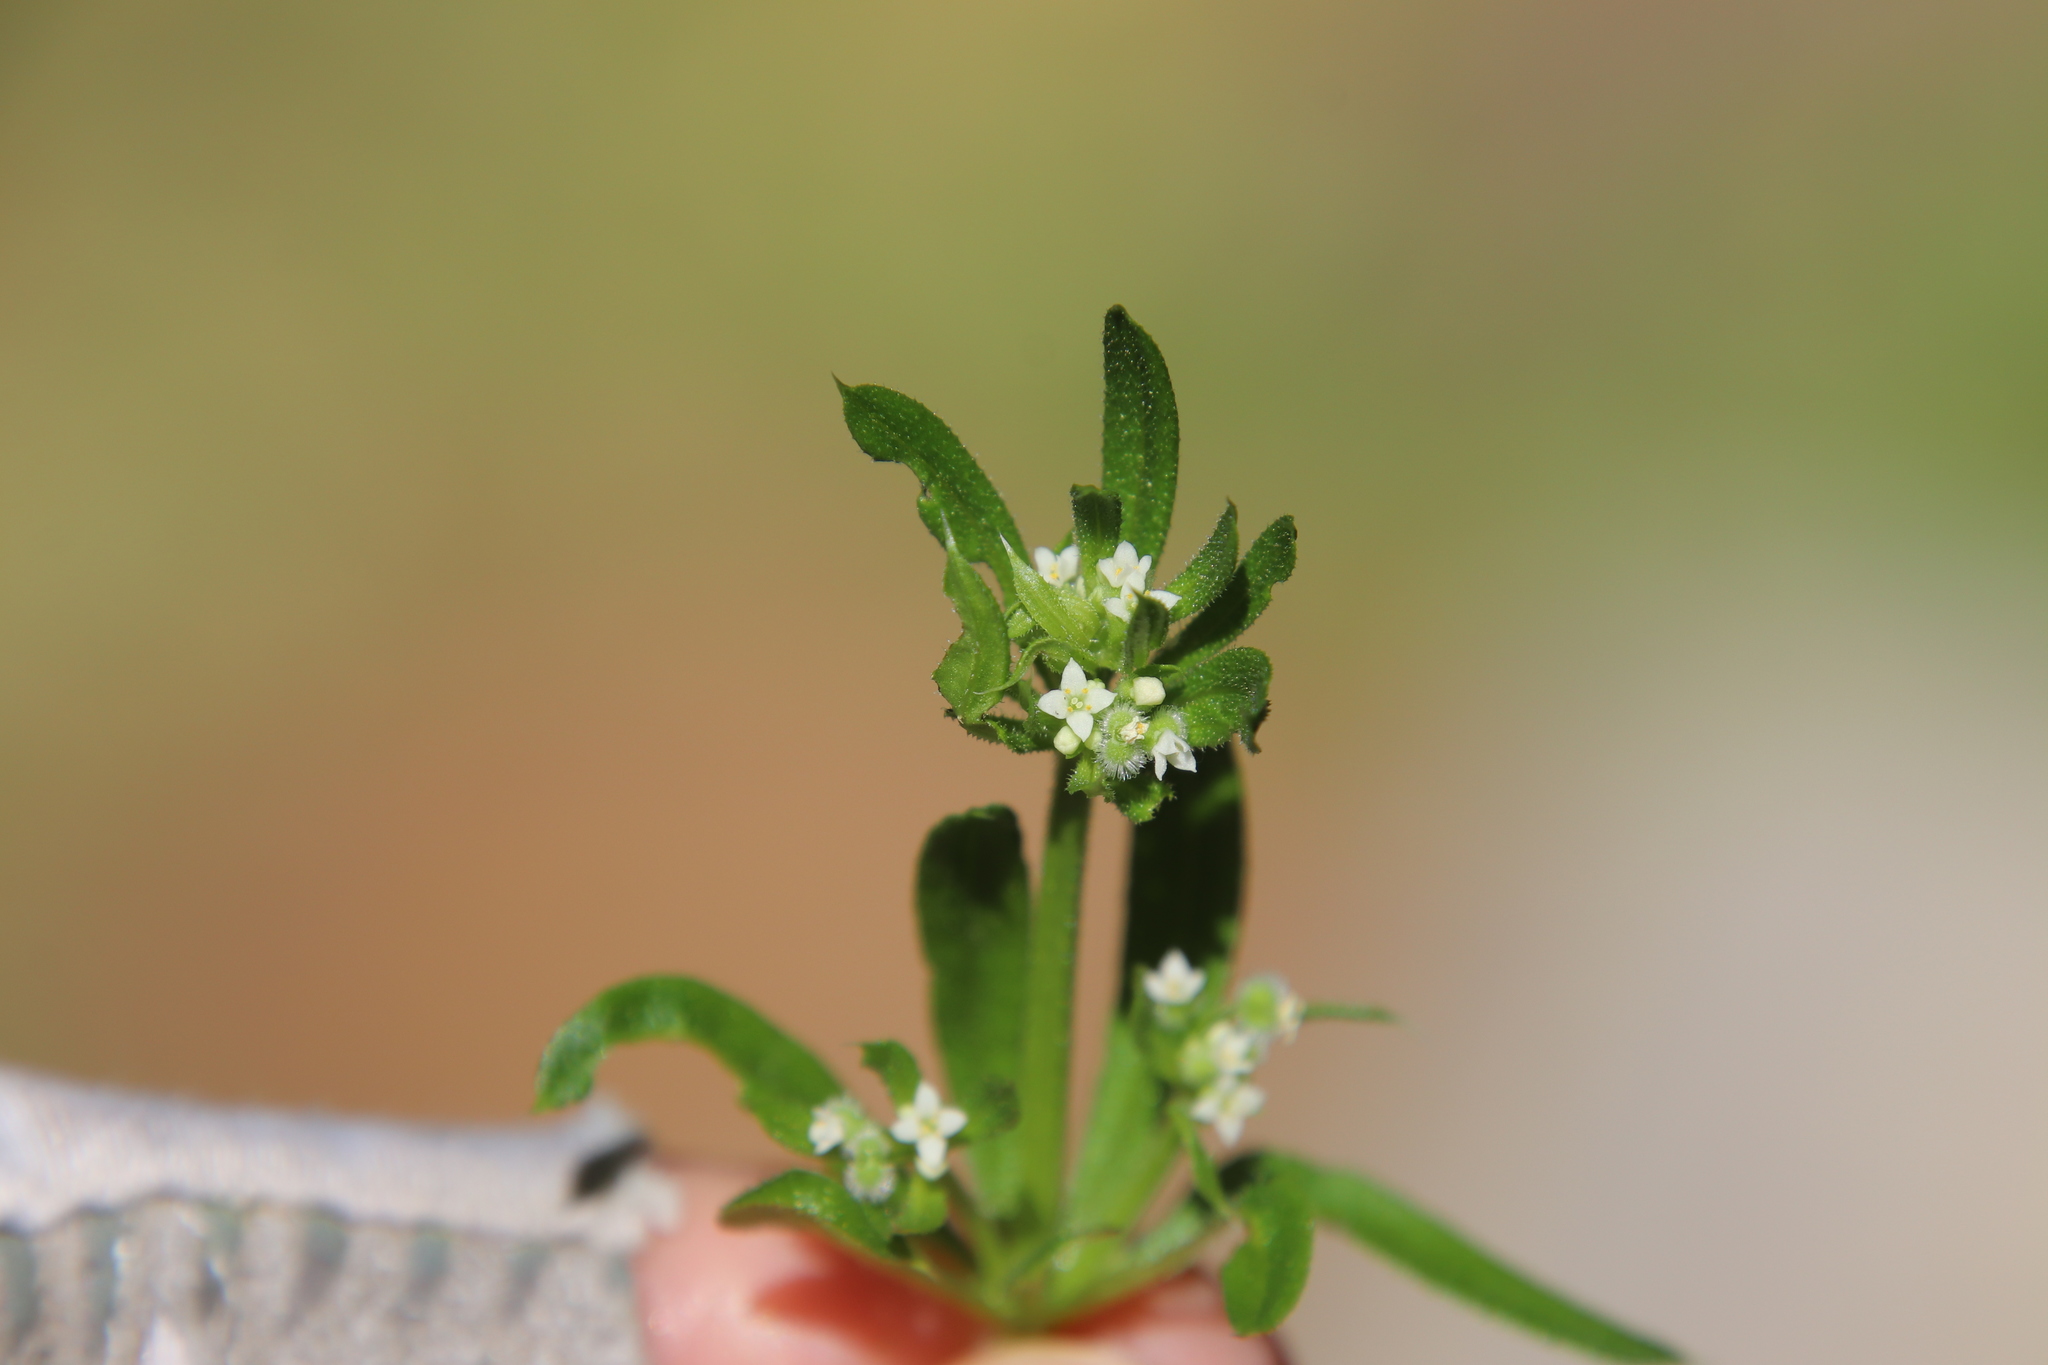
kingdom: Plantae
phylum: Tracheophyta
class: Magnoliopsida
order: Gentianales
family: Rubiaceae
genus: Galium
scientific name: Galium aparine
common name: Cleavers
